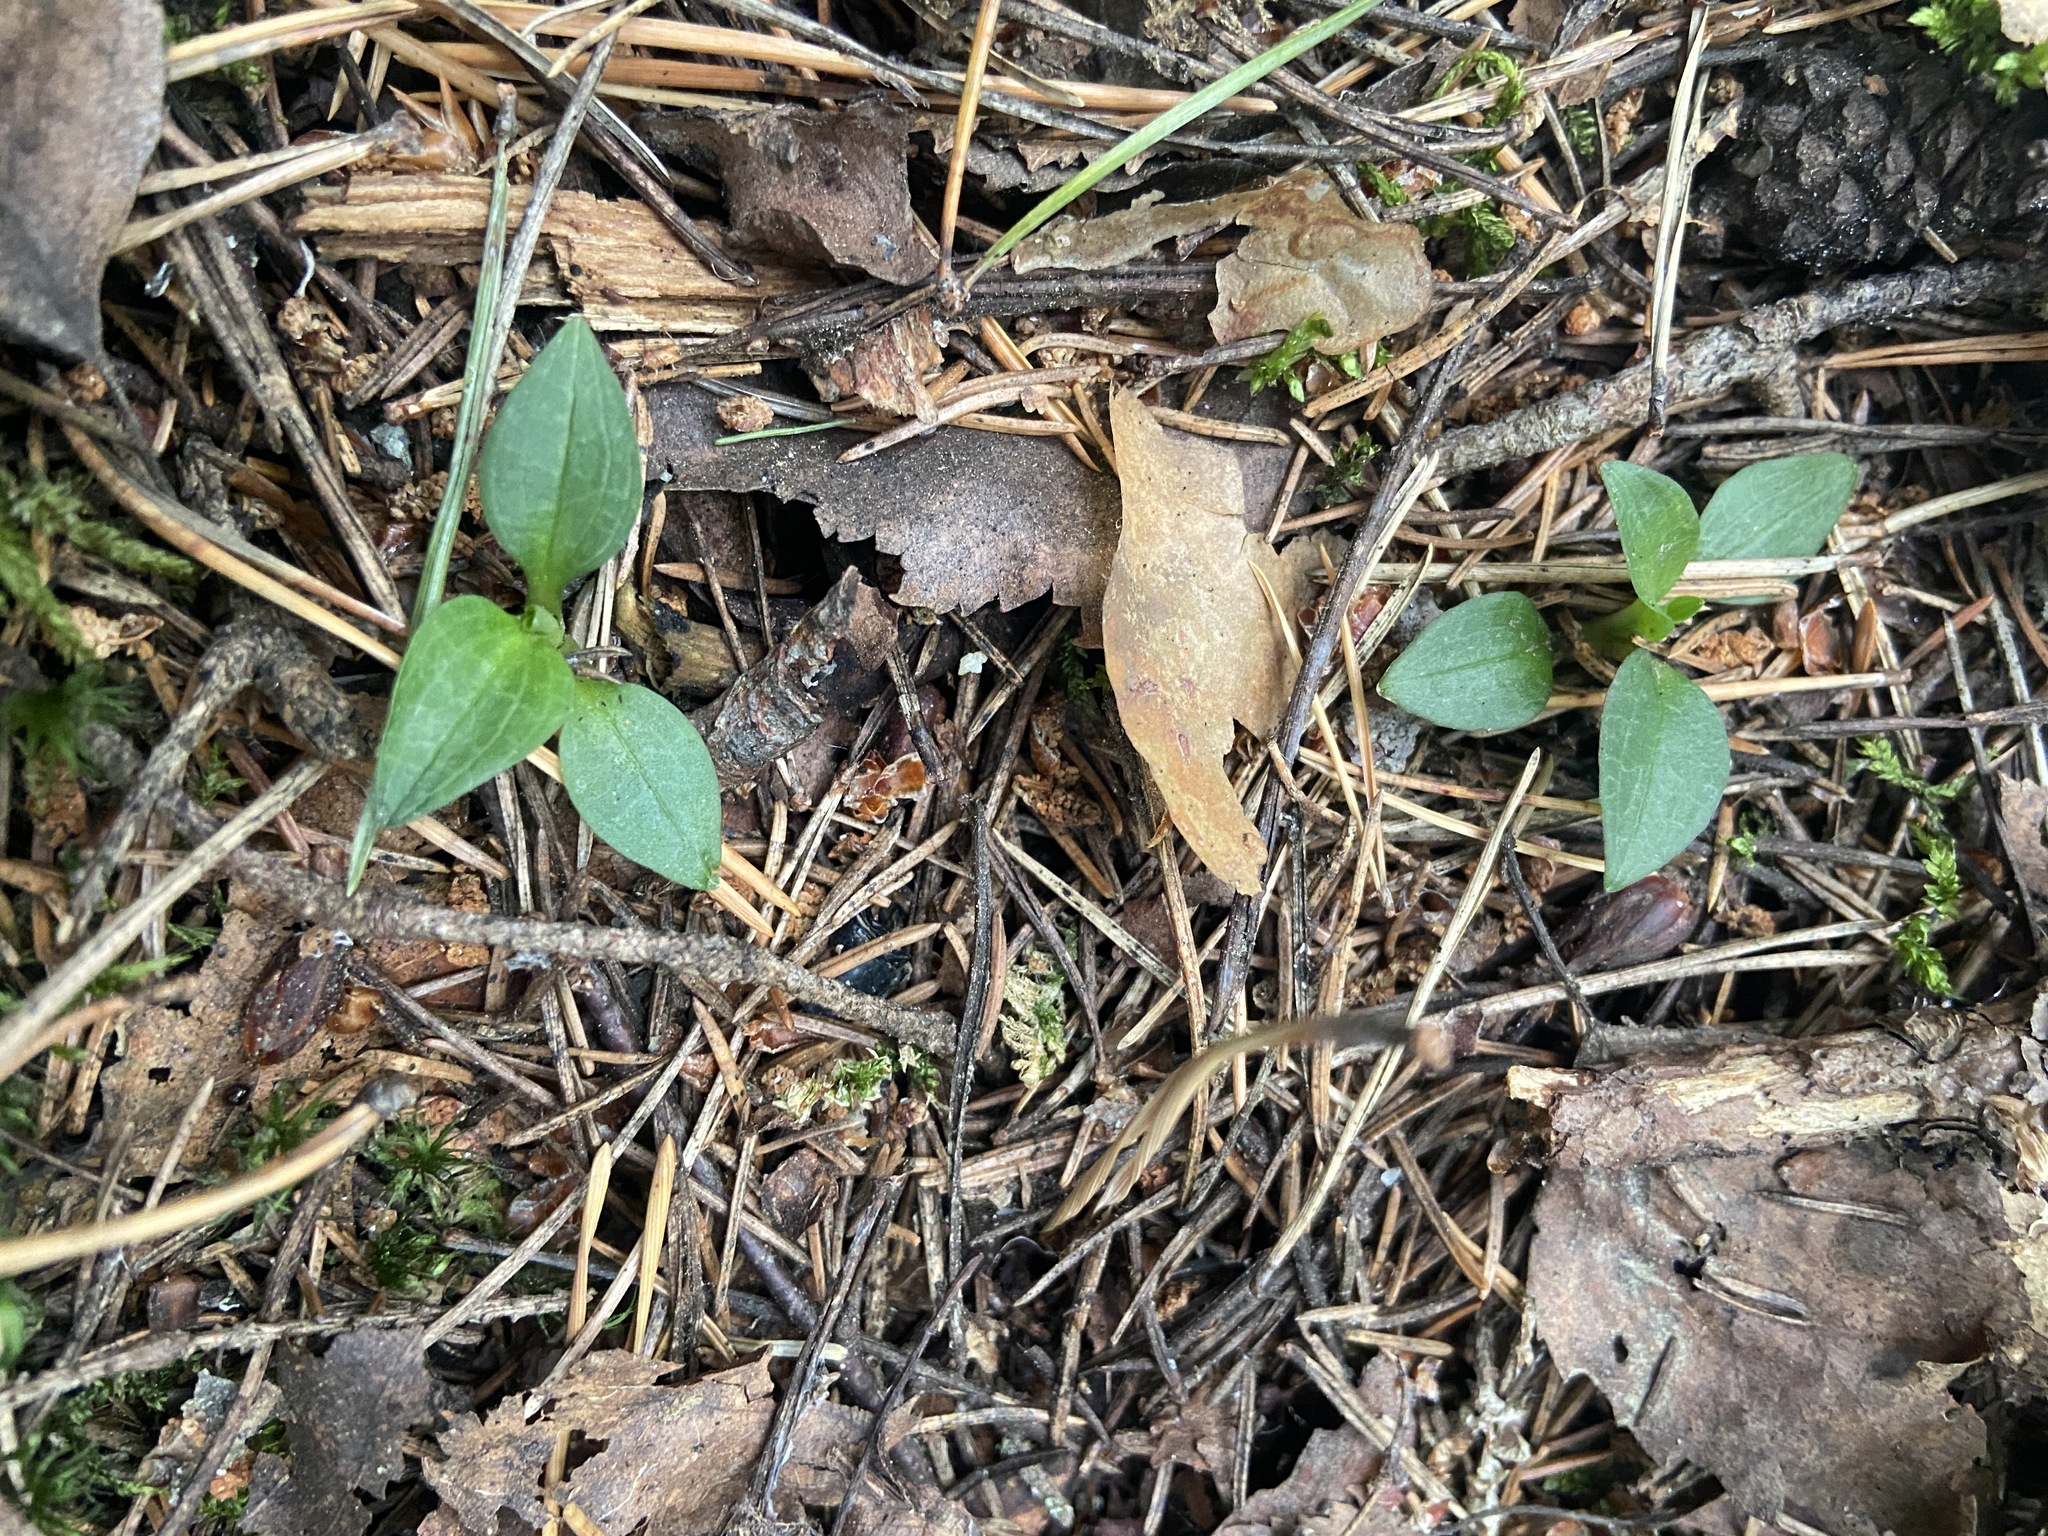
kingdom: Plantae
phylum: Tracheophyta
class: Liliopsida
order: Asparagales
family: Orchidaceae
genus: Goodyera
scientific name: Goodyera repens
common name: Creeping lady's-tresses
